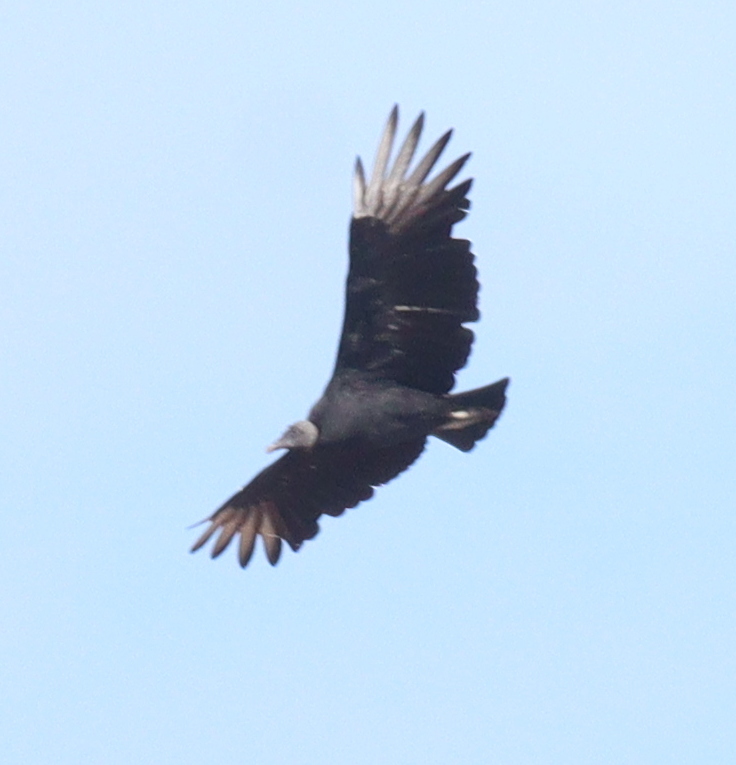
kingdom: Animalia
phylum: Chordata
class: Aves
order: Accipitriformes
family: Cathartidae
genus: Coragyps
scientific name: Coragyps atratus
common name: Black vulture
